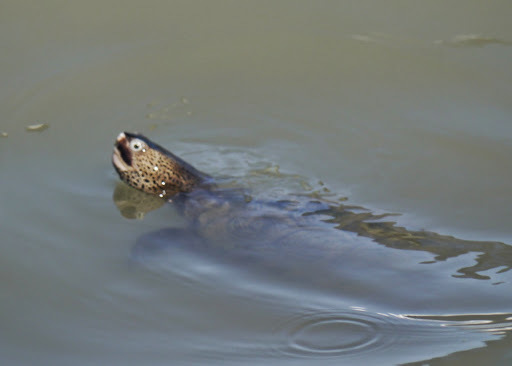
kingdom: Animalia
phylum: Chordata
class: Testudines
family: Emydidae
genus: Malaclemys
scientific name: Malaclemys terrapin
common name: Diamondback terrapin
